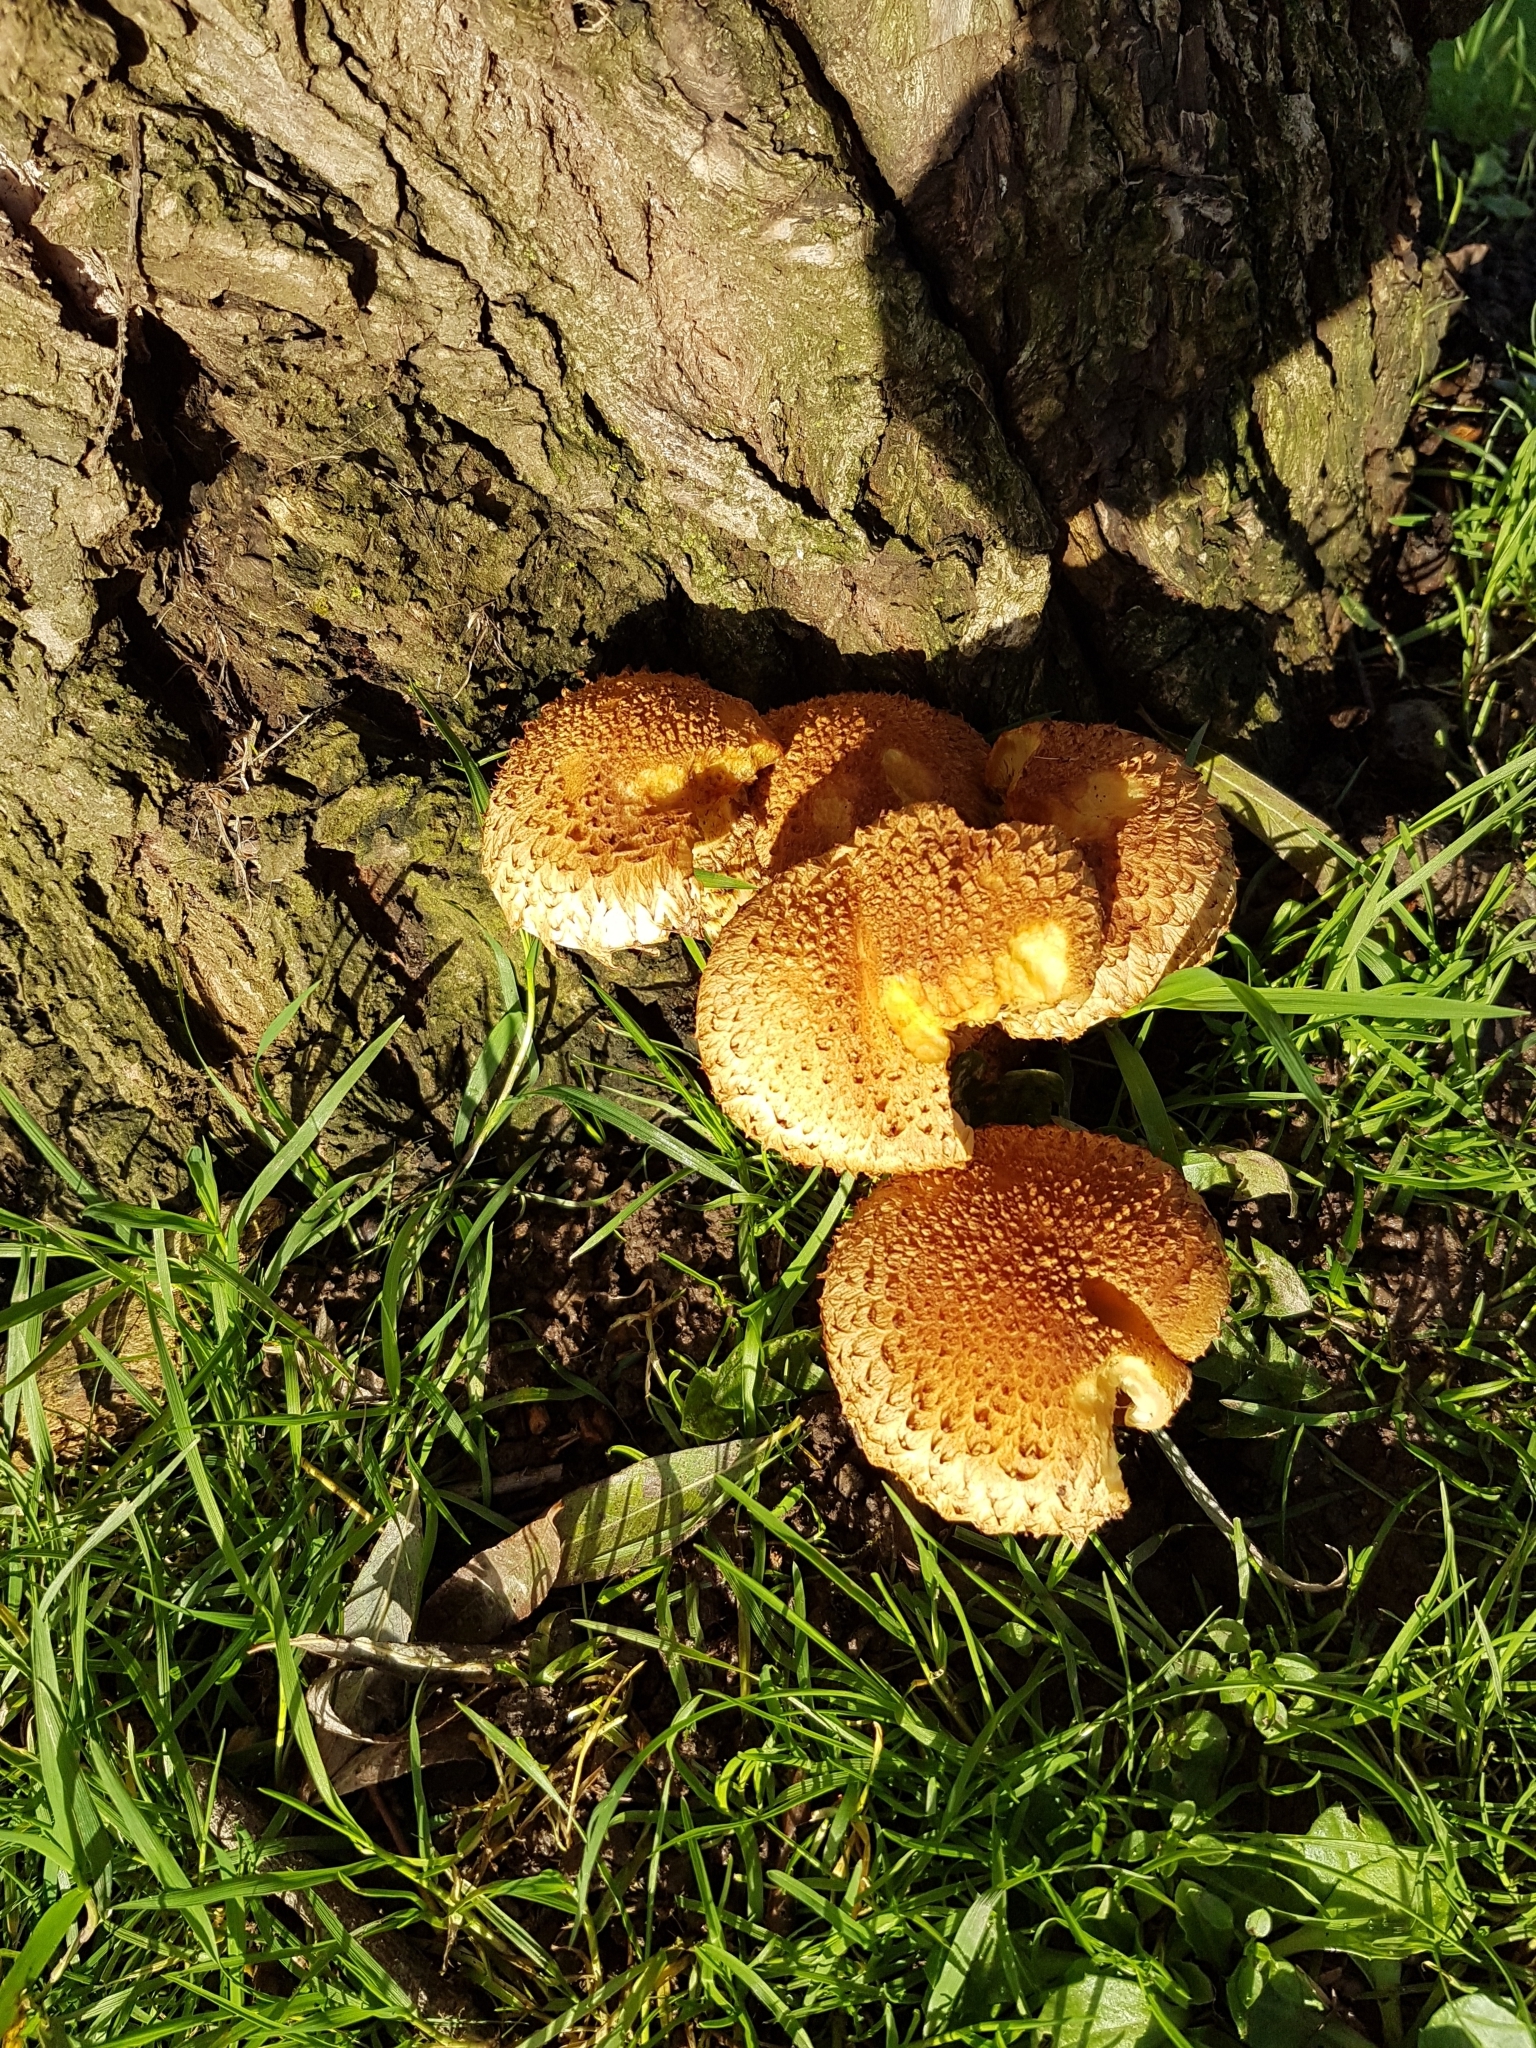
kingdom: Fungi
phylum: Basidiomycota
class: Agaricomycetes
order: Agaricales
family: Strophariaceae
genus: Pholiota
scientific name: Pholiota squarrosa
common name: Shaggy pholiota
